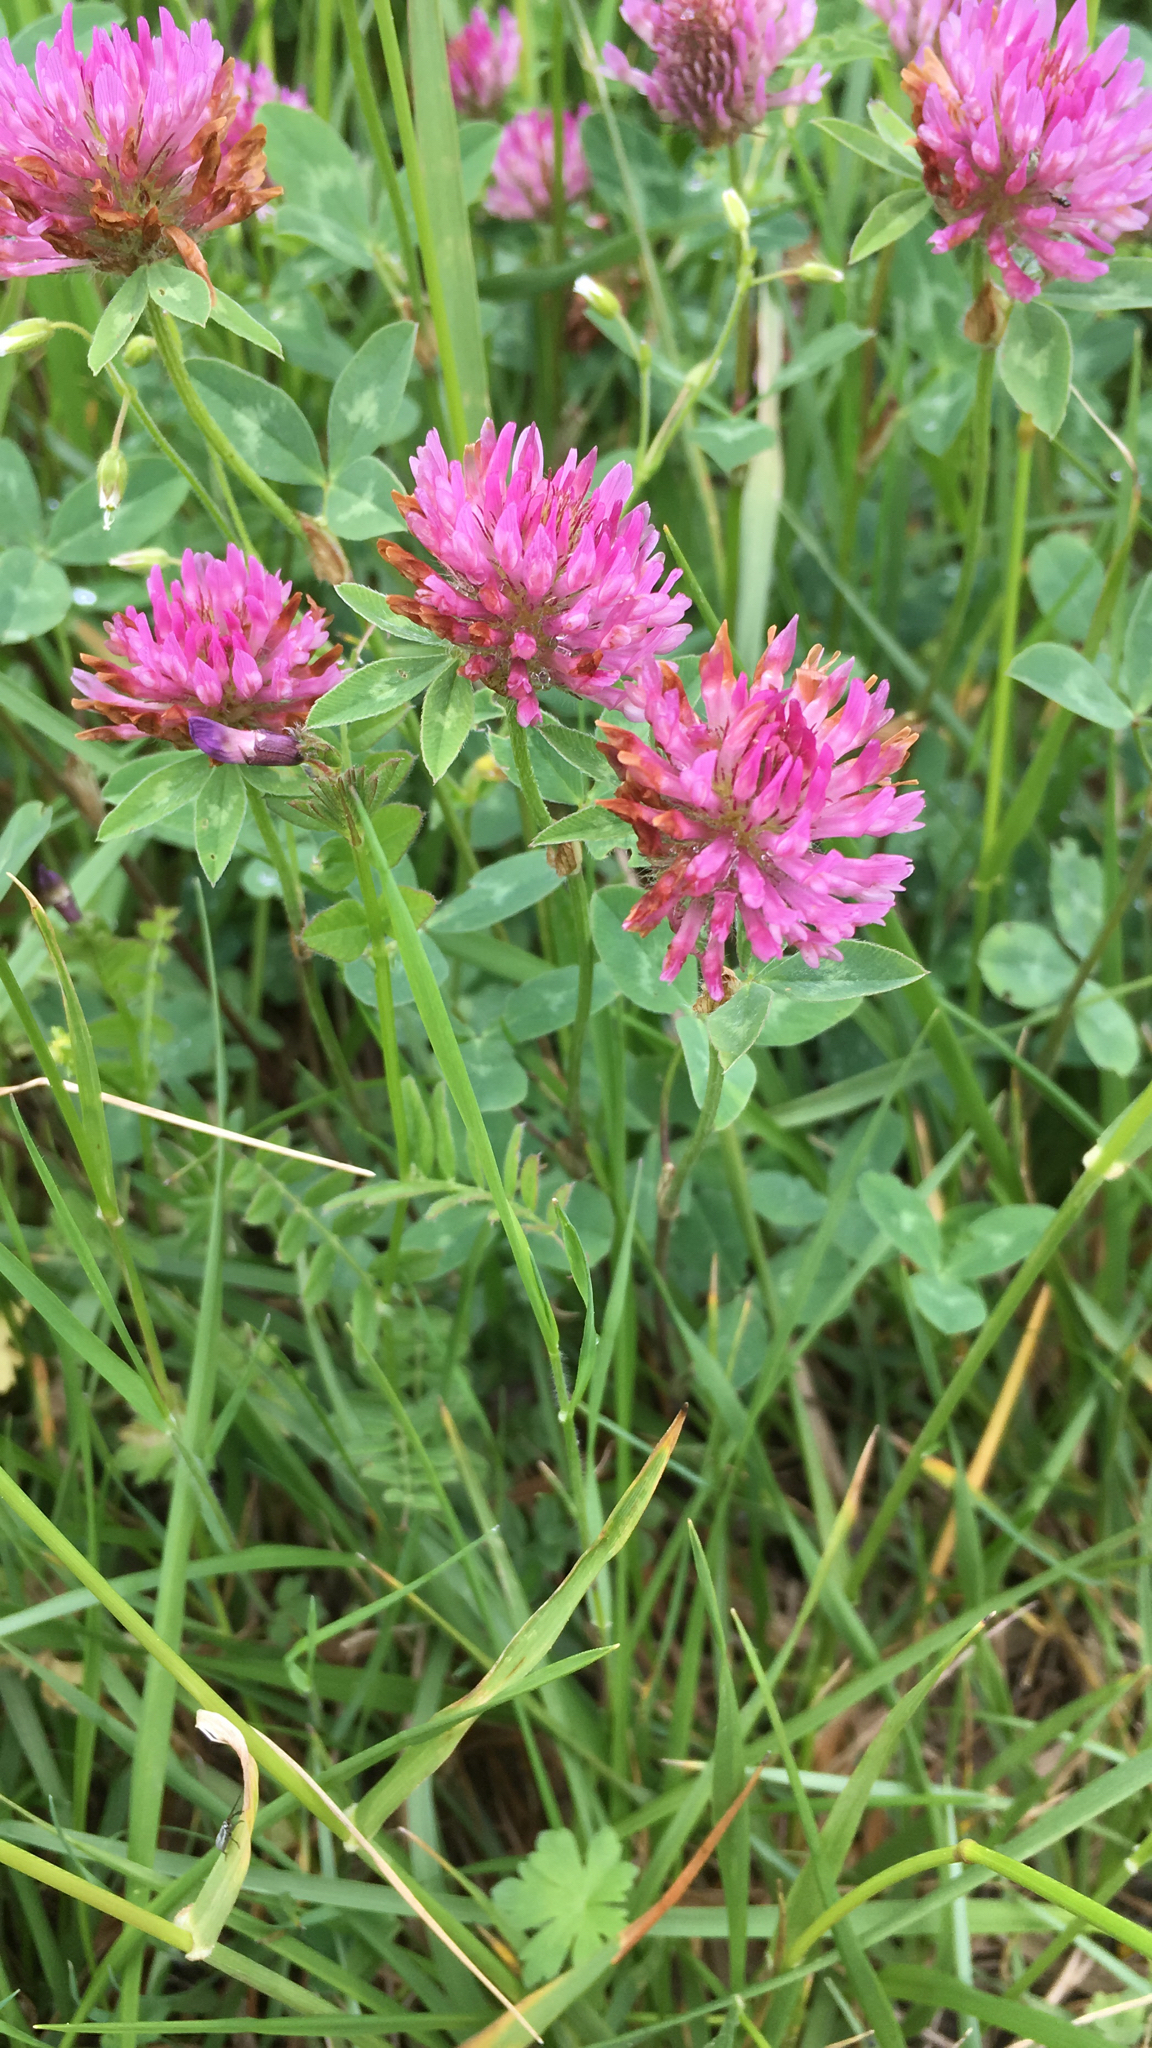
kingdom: Plantae
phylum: Tracheophyta
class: Magnoliopsida
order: Fabales
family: Fabaceae
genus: Trifolium
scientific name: Trifolium pratense
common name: Red clover
